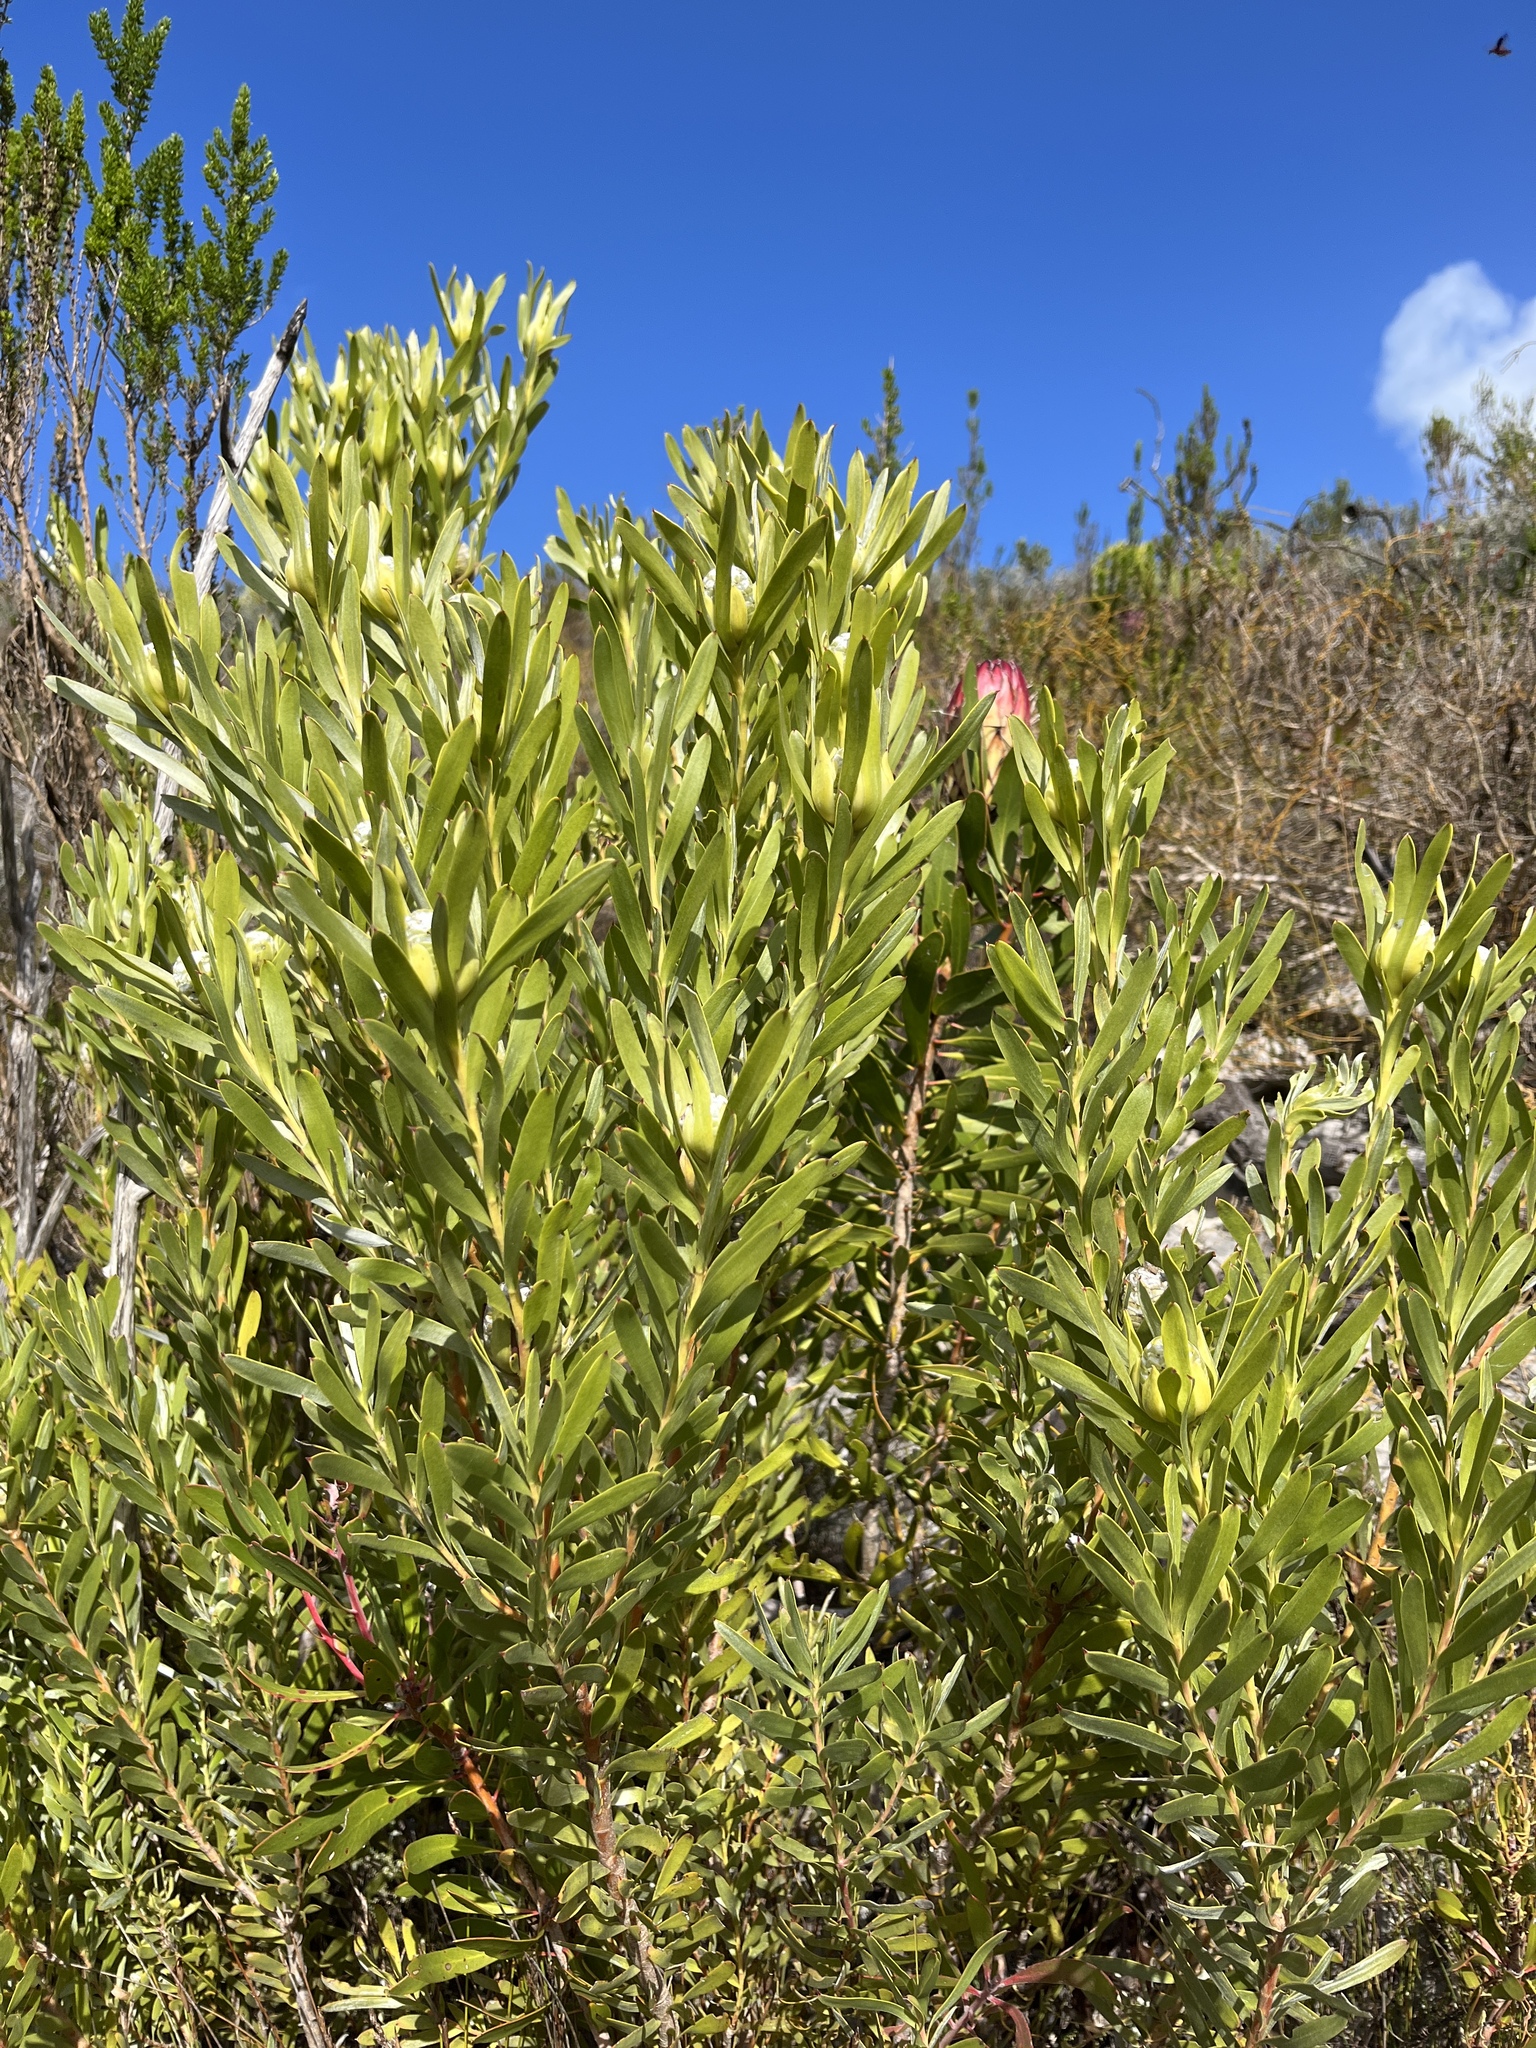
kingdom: Plantae
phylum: Tracheophyta
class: Magnoliopsida
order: Proteales
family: Proteaceae
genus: Leucadendron
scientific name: Leucadendron meridianum
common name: Limestone conebush
